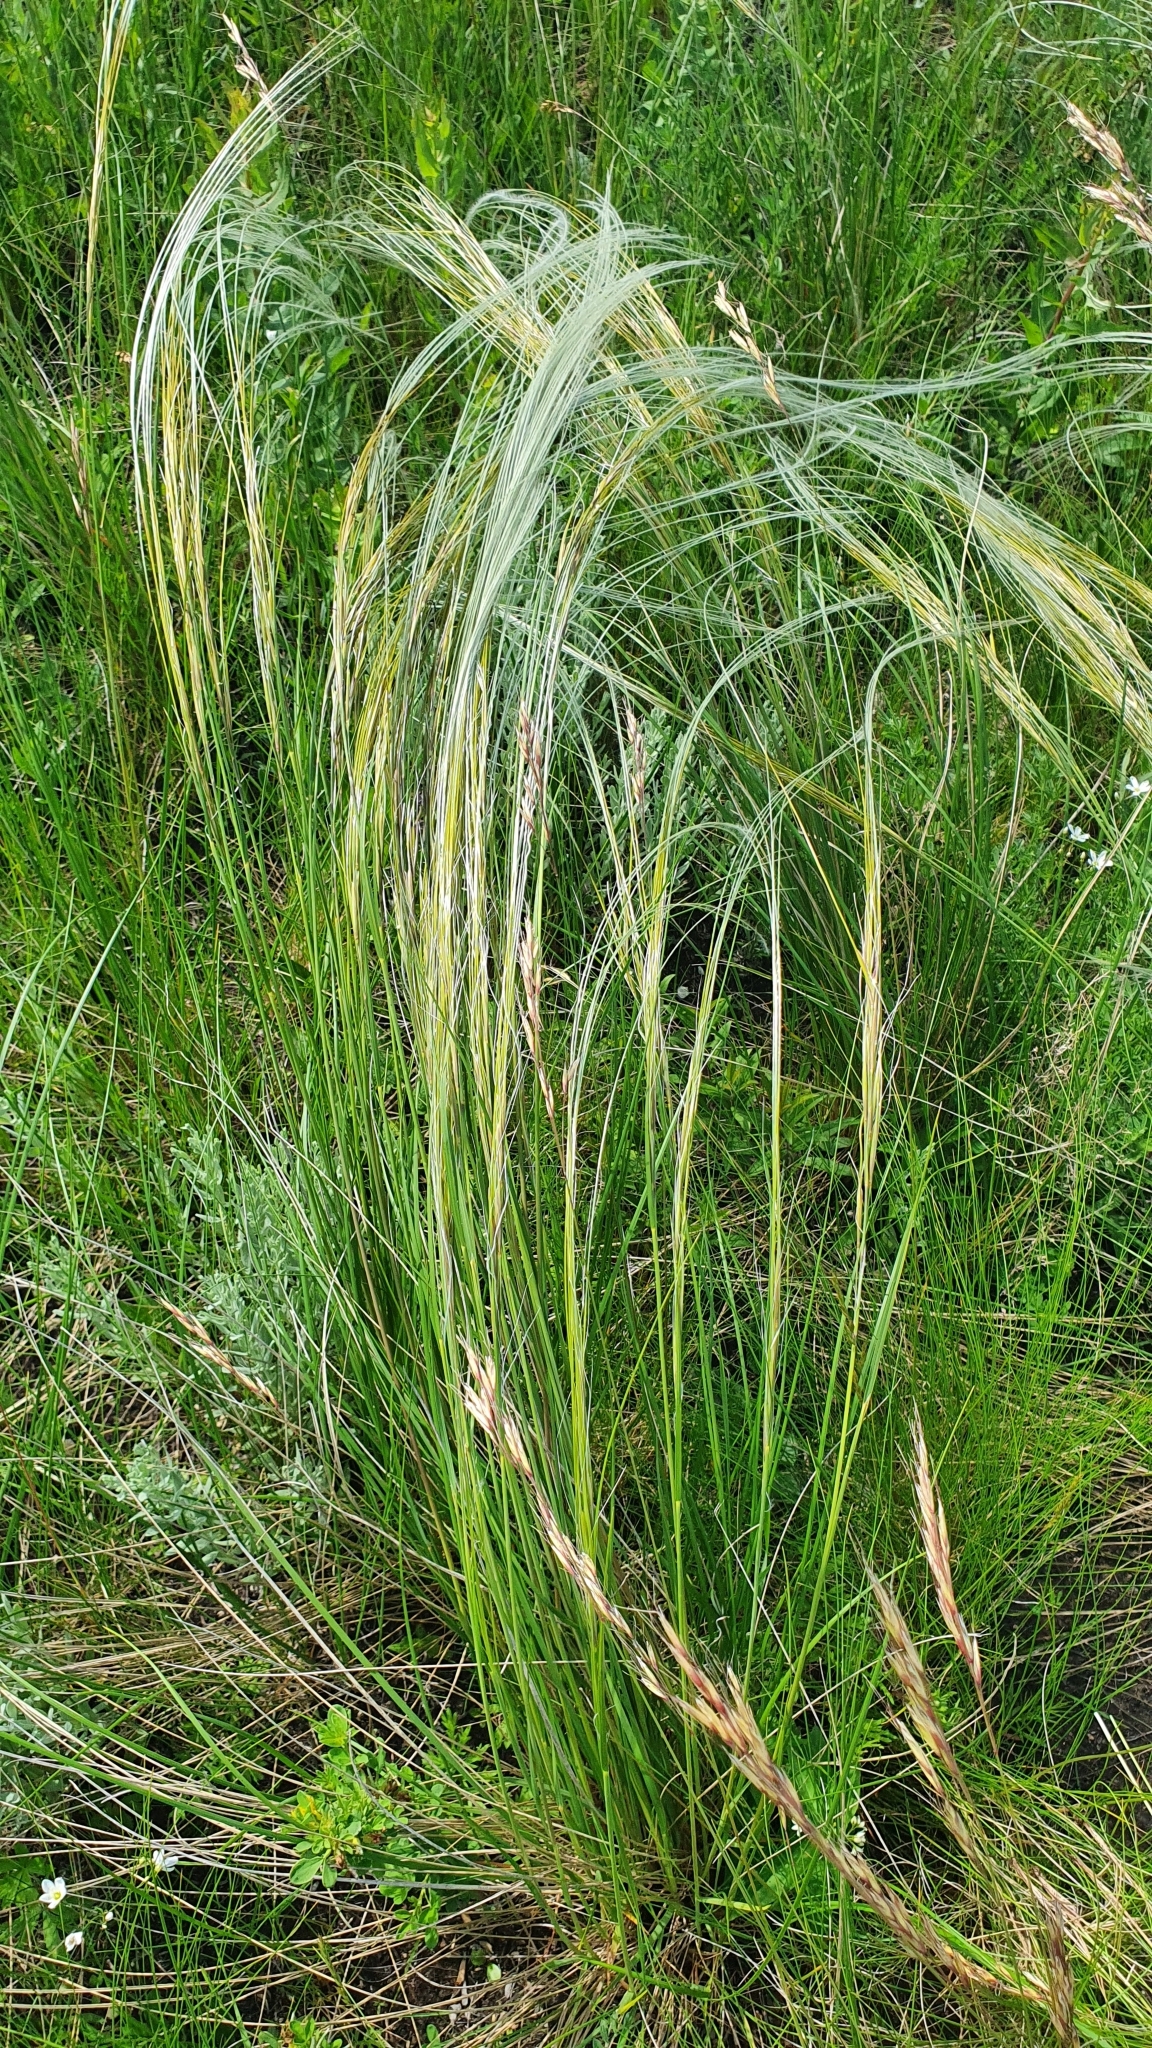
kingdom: Plantae
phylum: Tracheophyta
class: Liliopsida
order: Poales
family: Poaceae
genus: Stipa
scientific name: Stipa pennata
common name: European feather grass
